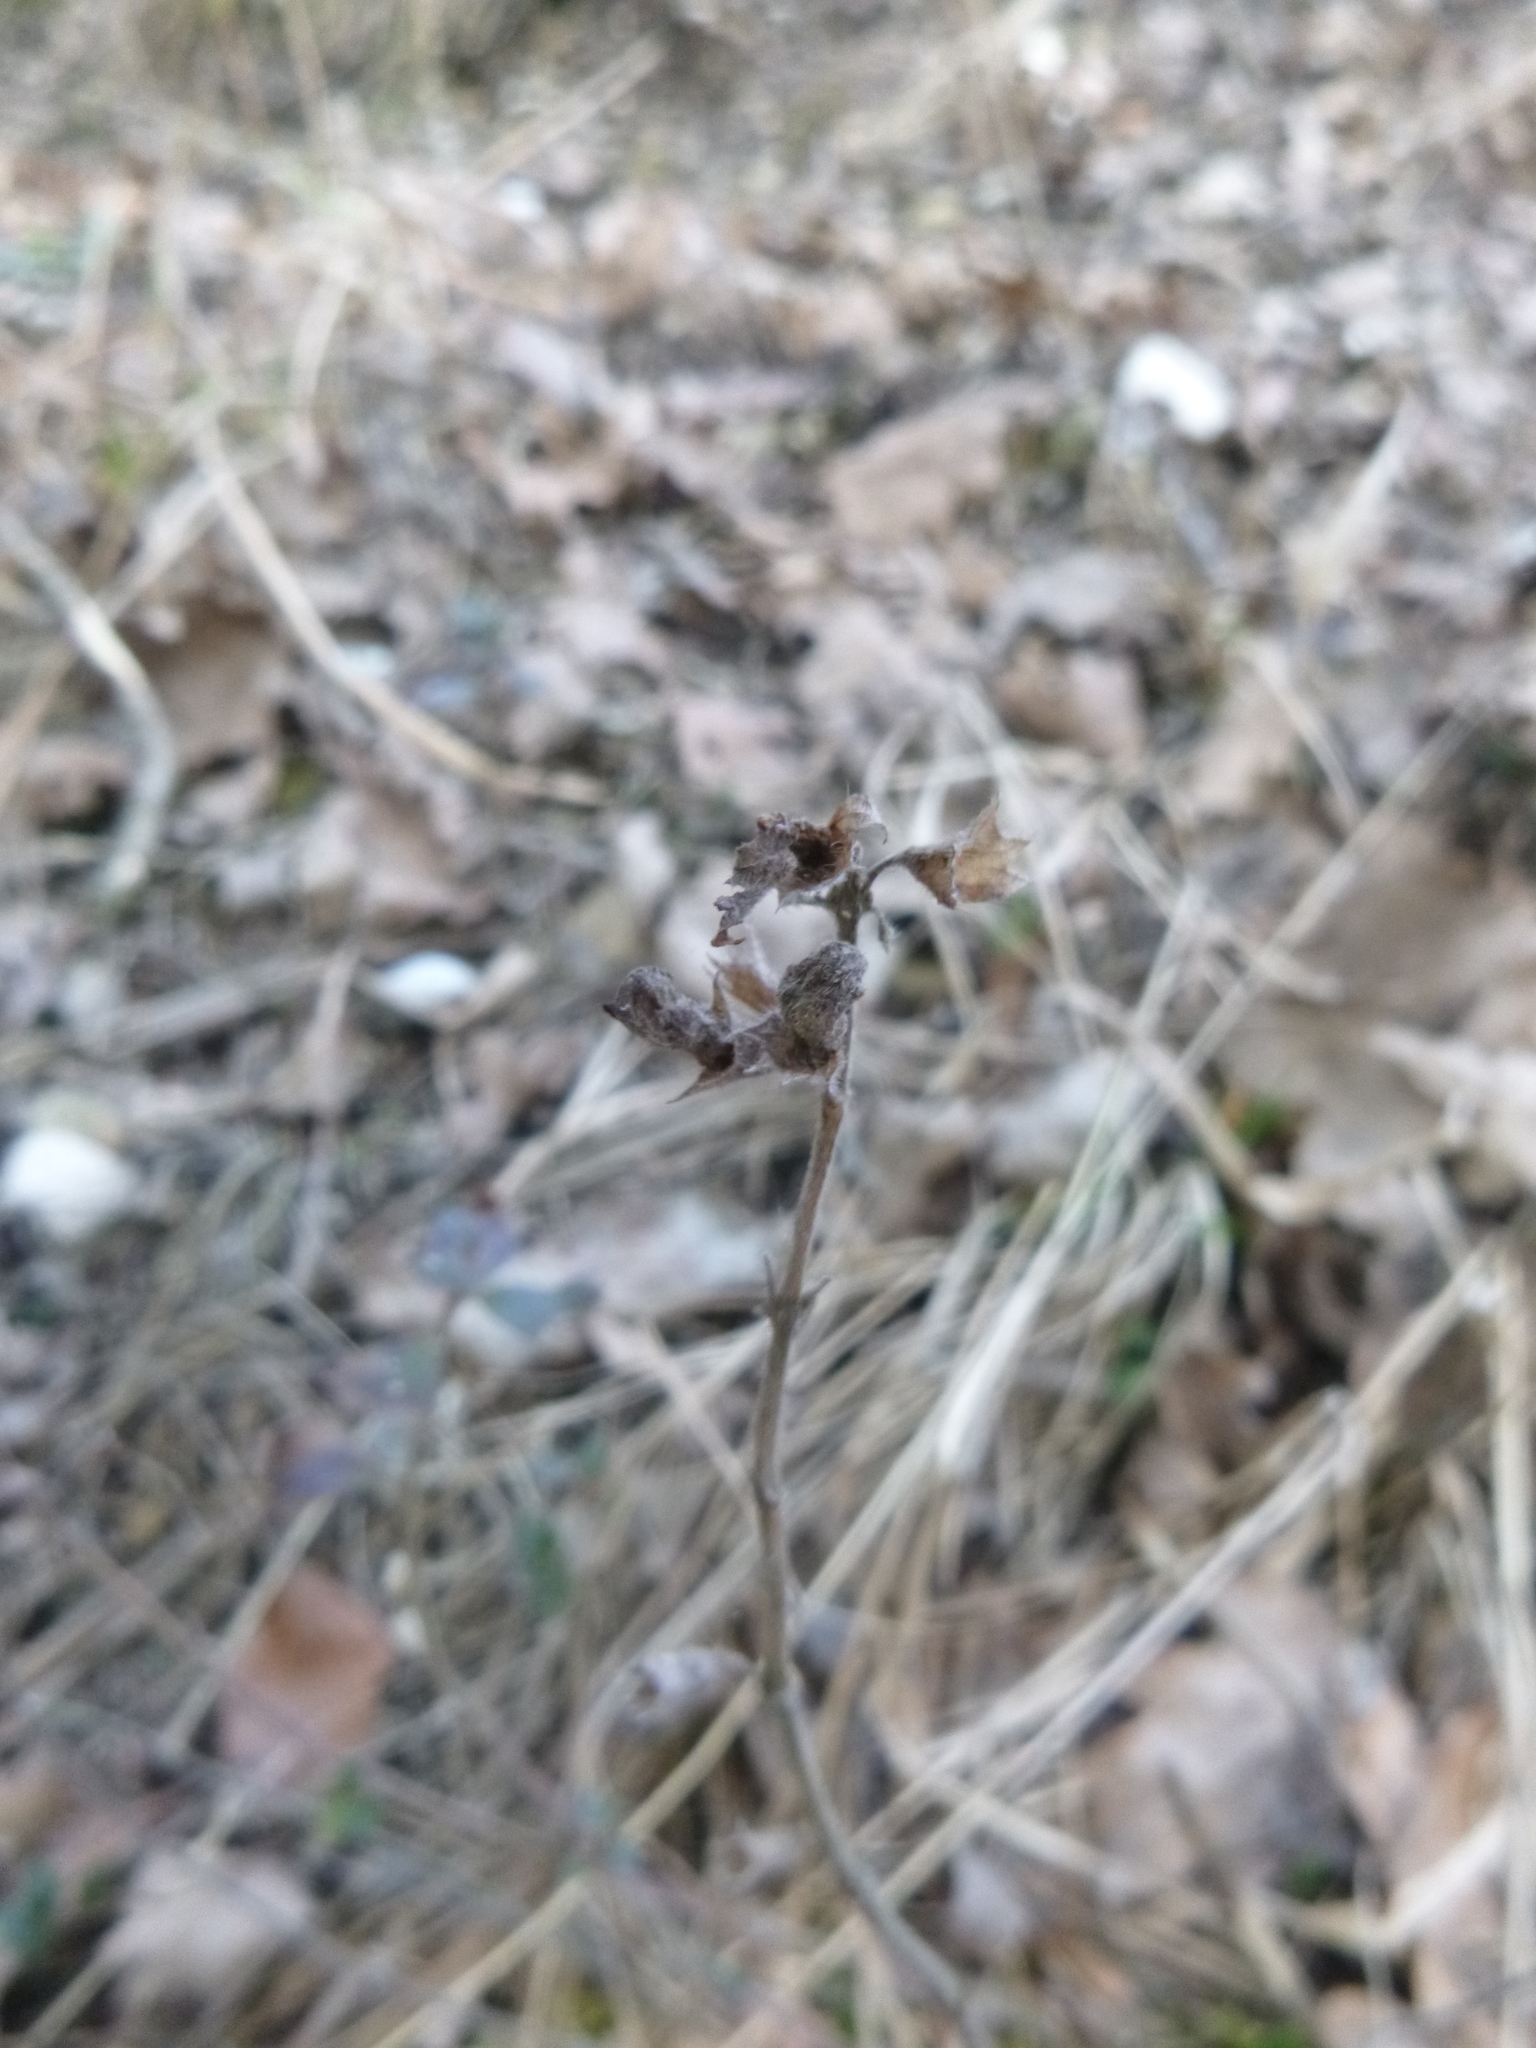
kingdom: Plantae
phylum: Tracheophyta
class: Magnoliopsida
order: Lamiales
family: Lamiaceae
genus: Teucrium
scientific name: Teucrium chamaedrys
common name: Wall germander
